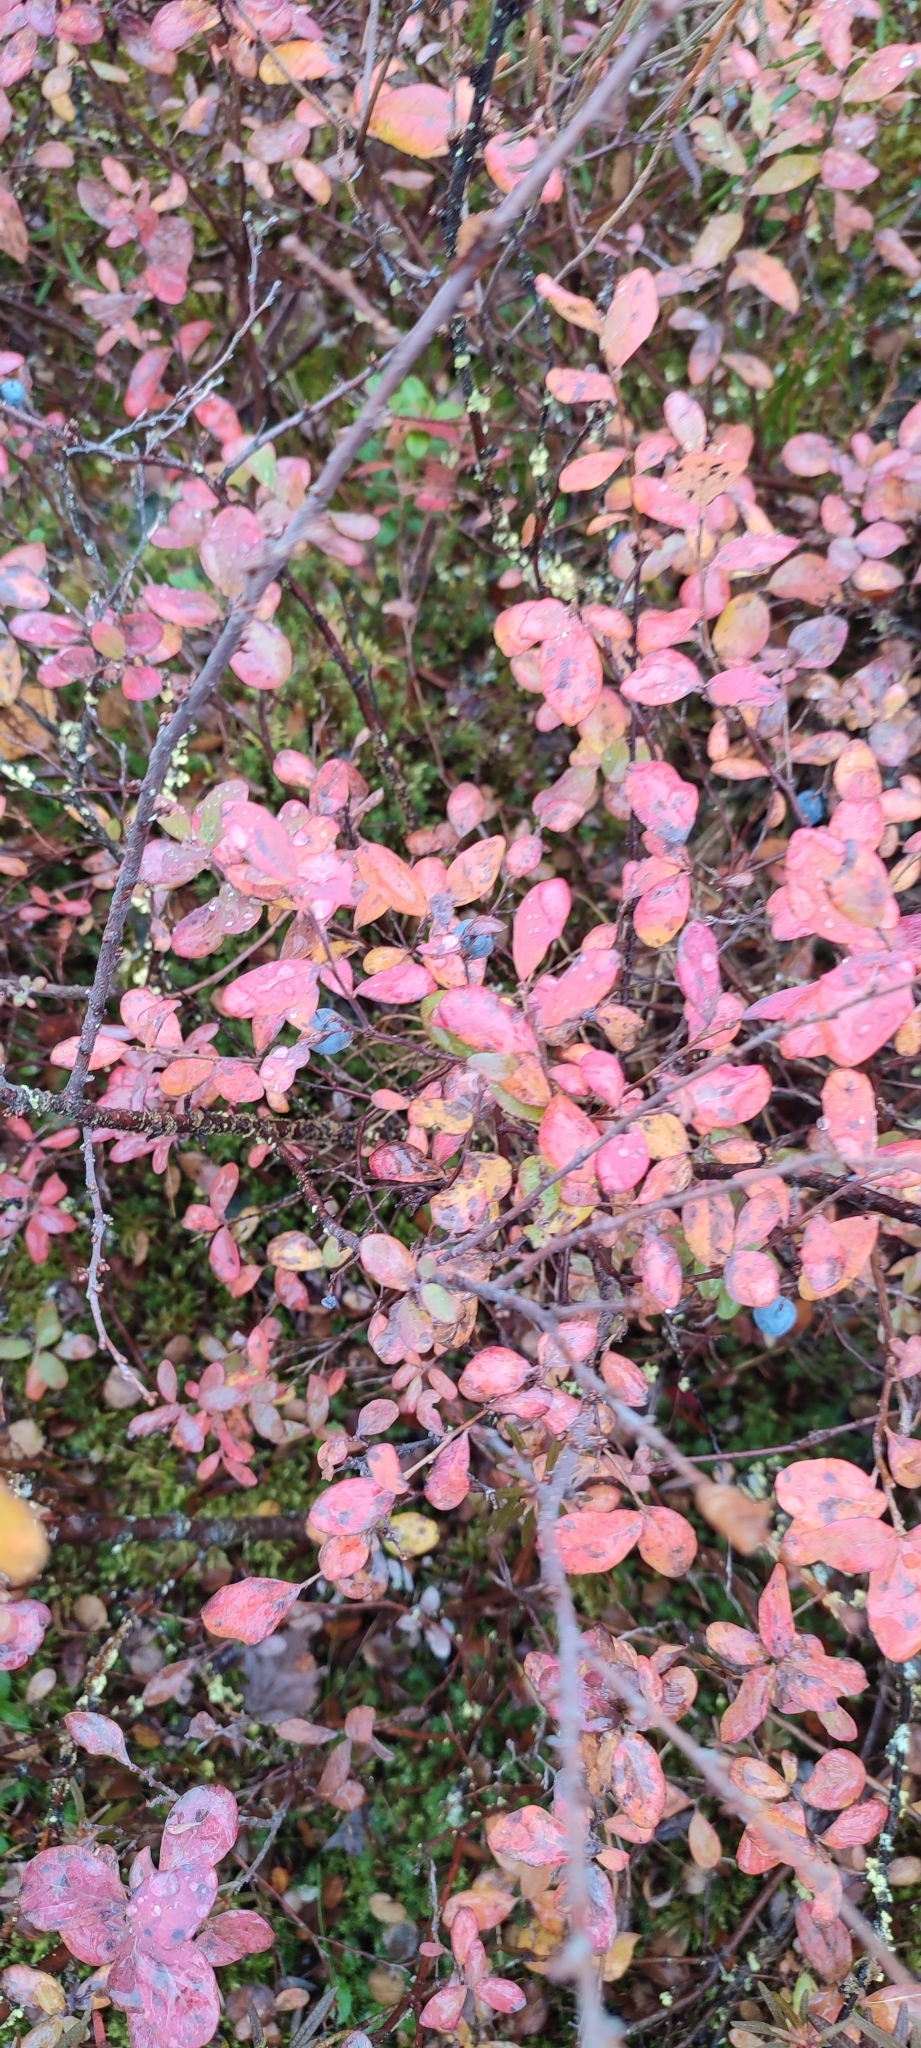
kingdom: Plantae
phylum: Tracheophyta
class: Magnoliopsida
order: Ericales
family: Ericaceae
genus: Vaccinium
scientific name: Vaccinium uliginosum
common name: Bog bilberry
